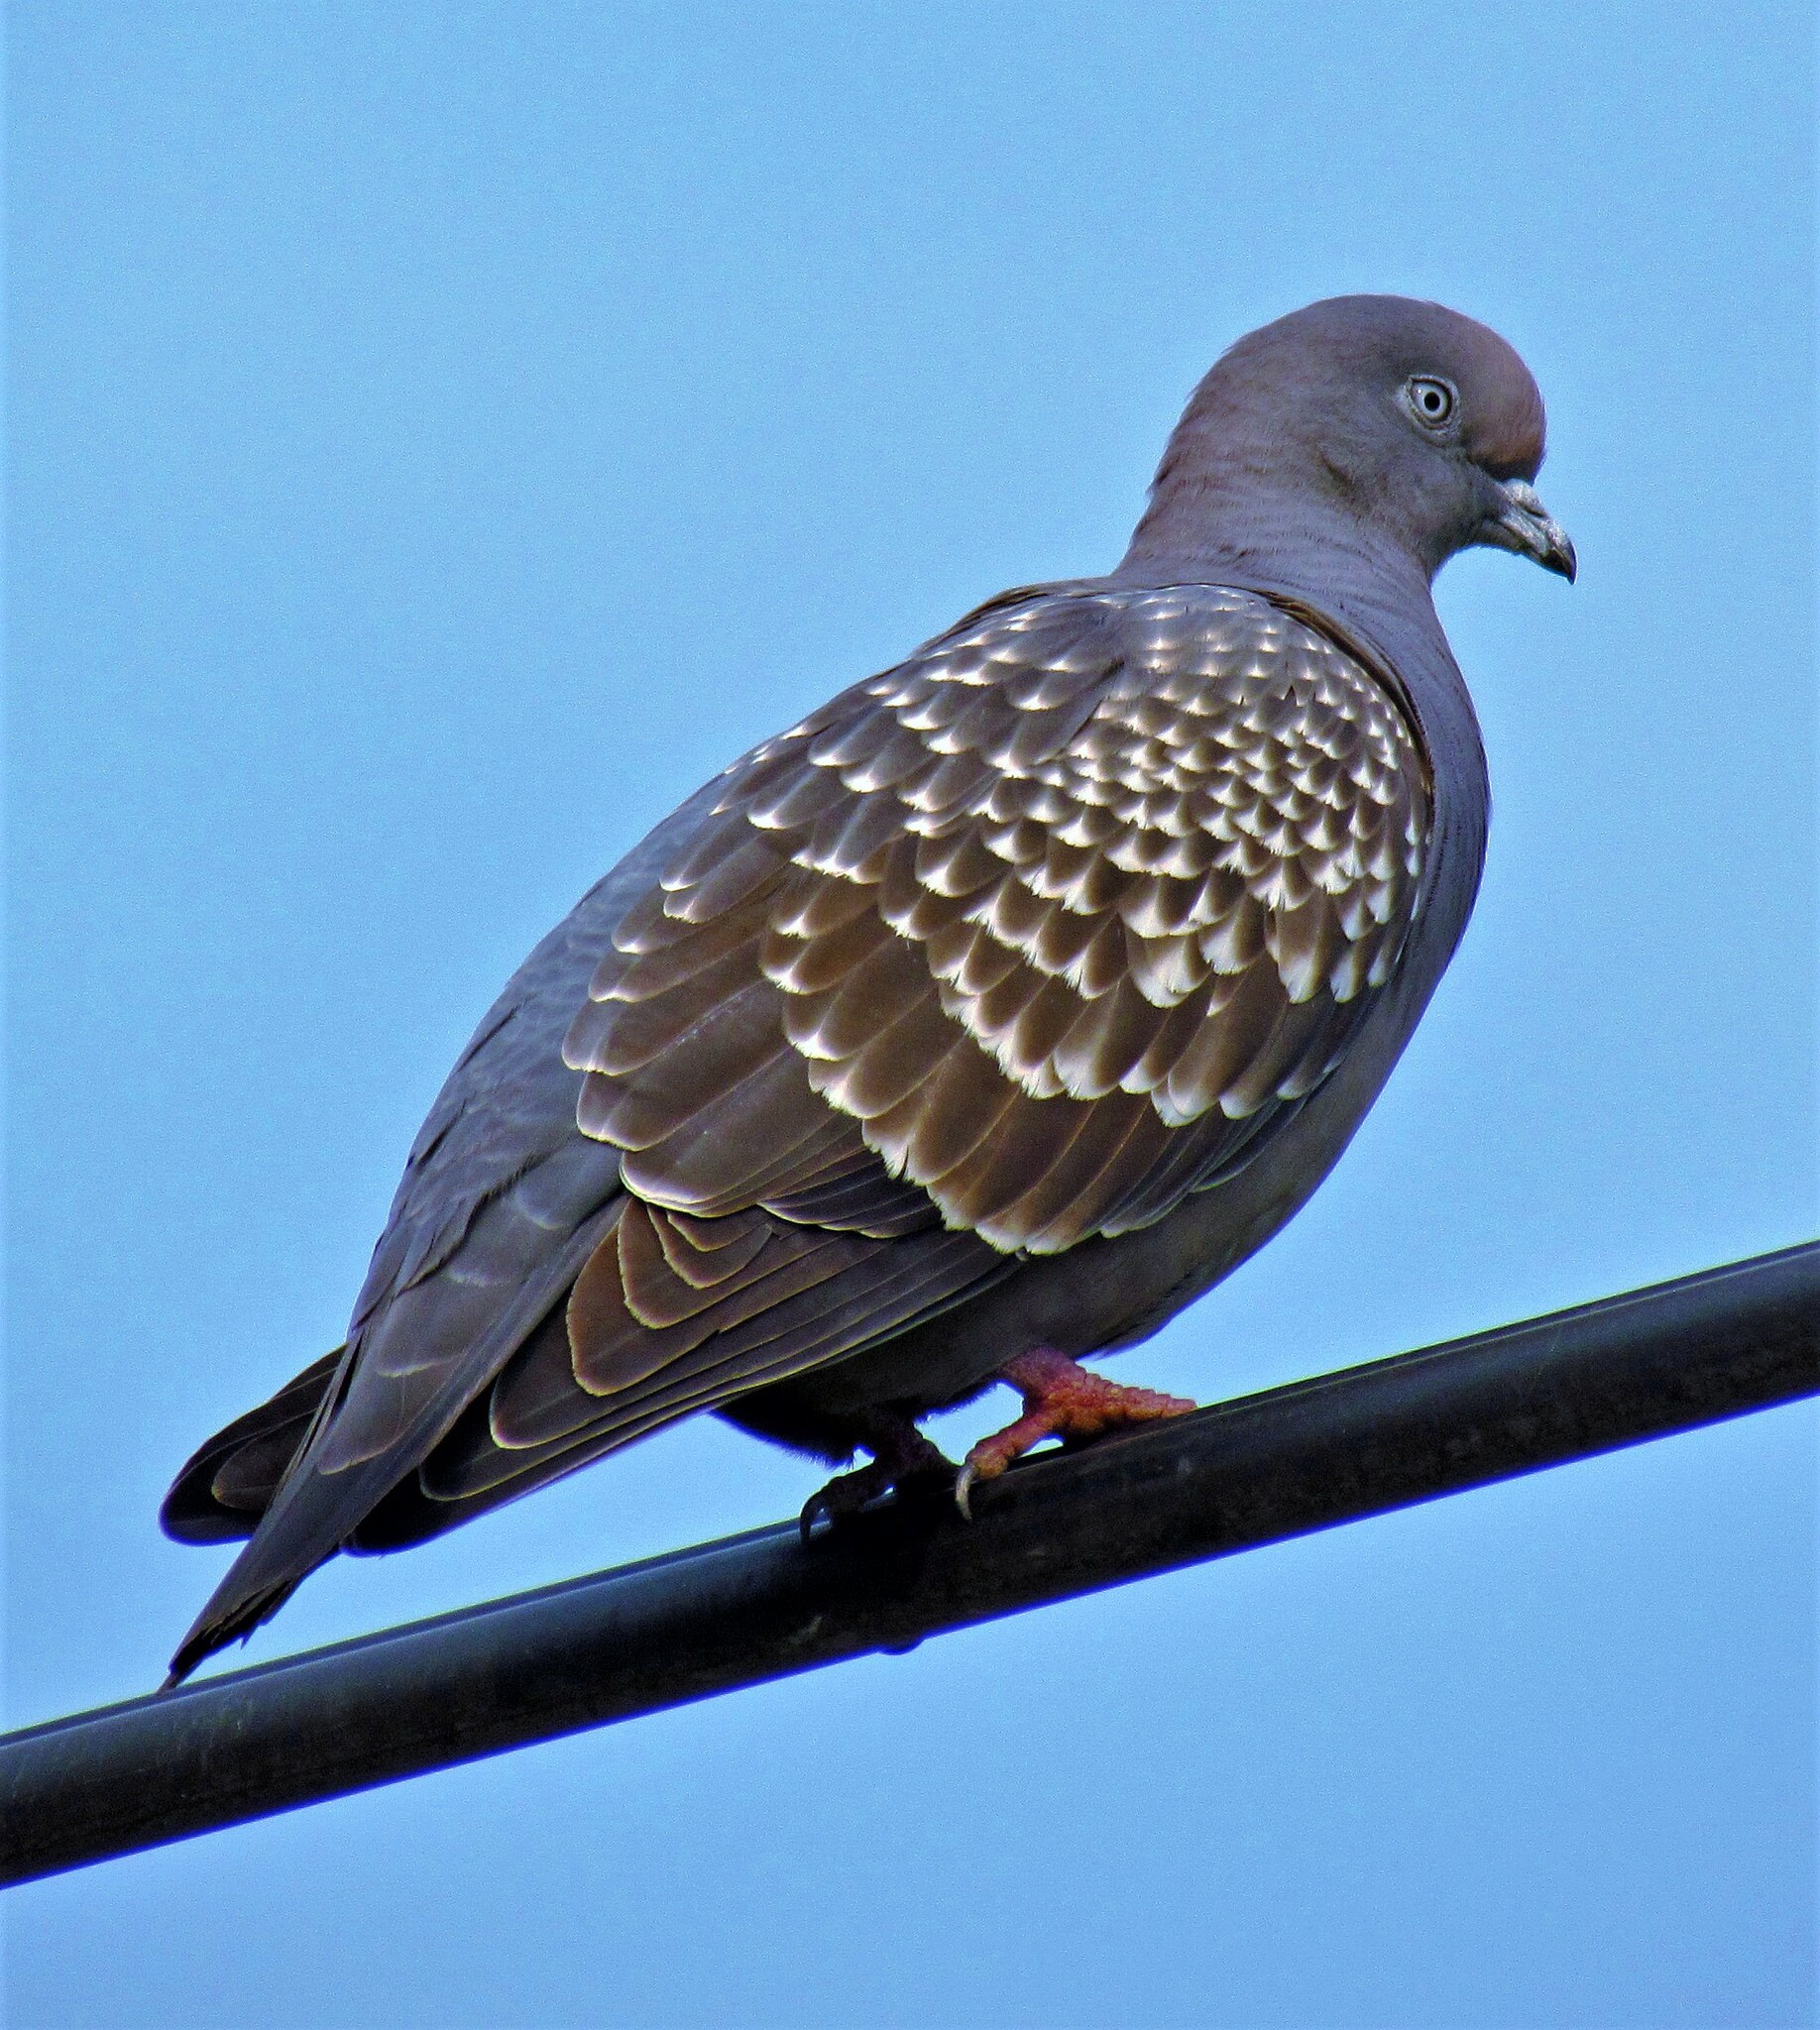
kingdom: Animalia
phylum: Chordata
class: Aves
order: Columbiformes
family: Columbidae
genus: Patagioenas
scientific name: Patagioenas maculosa
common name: Spot-winged pigeon
